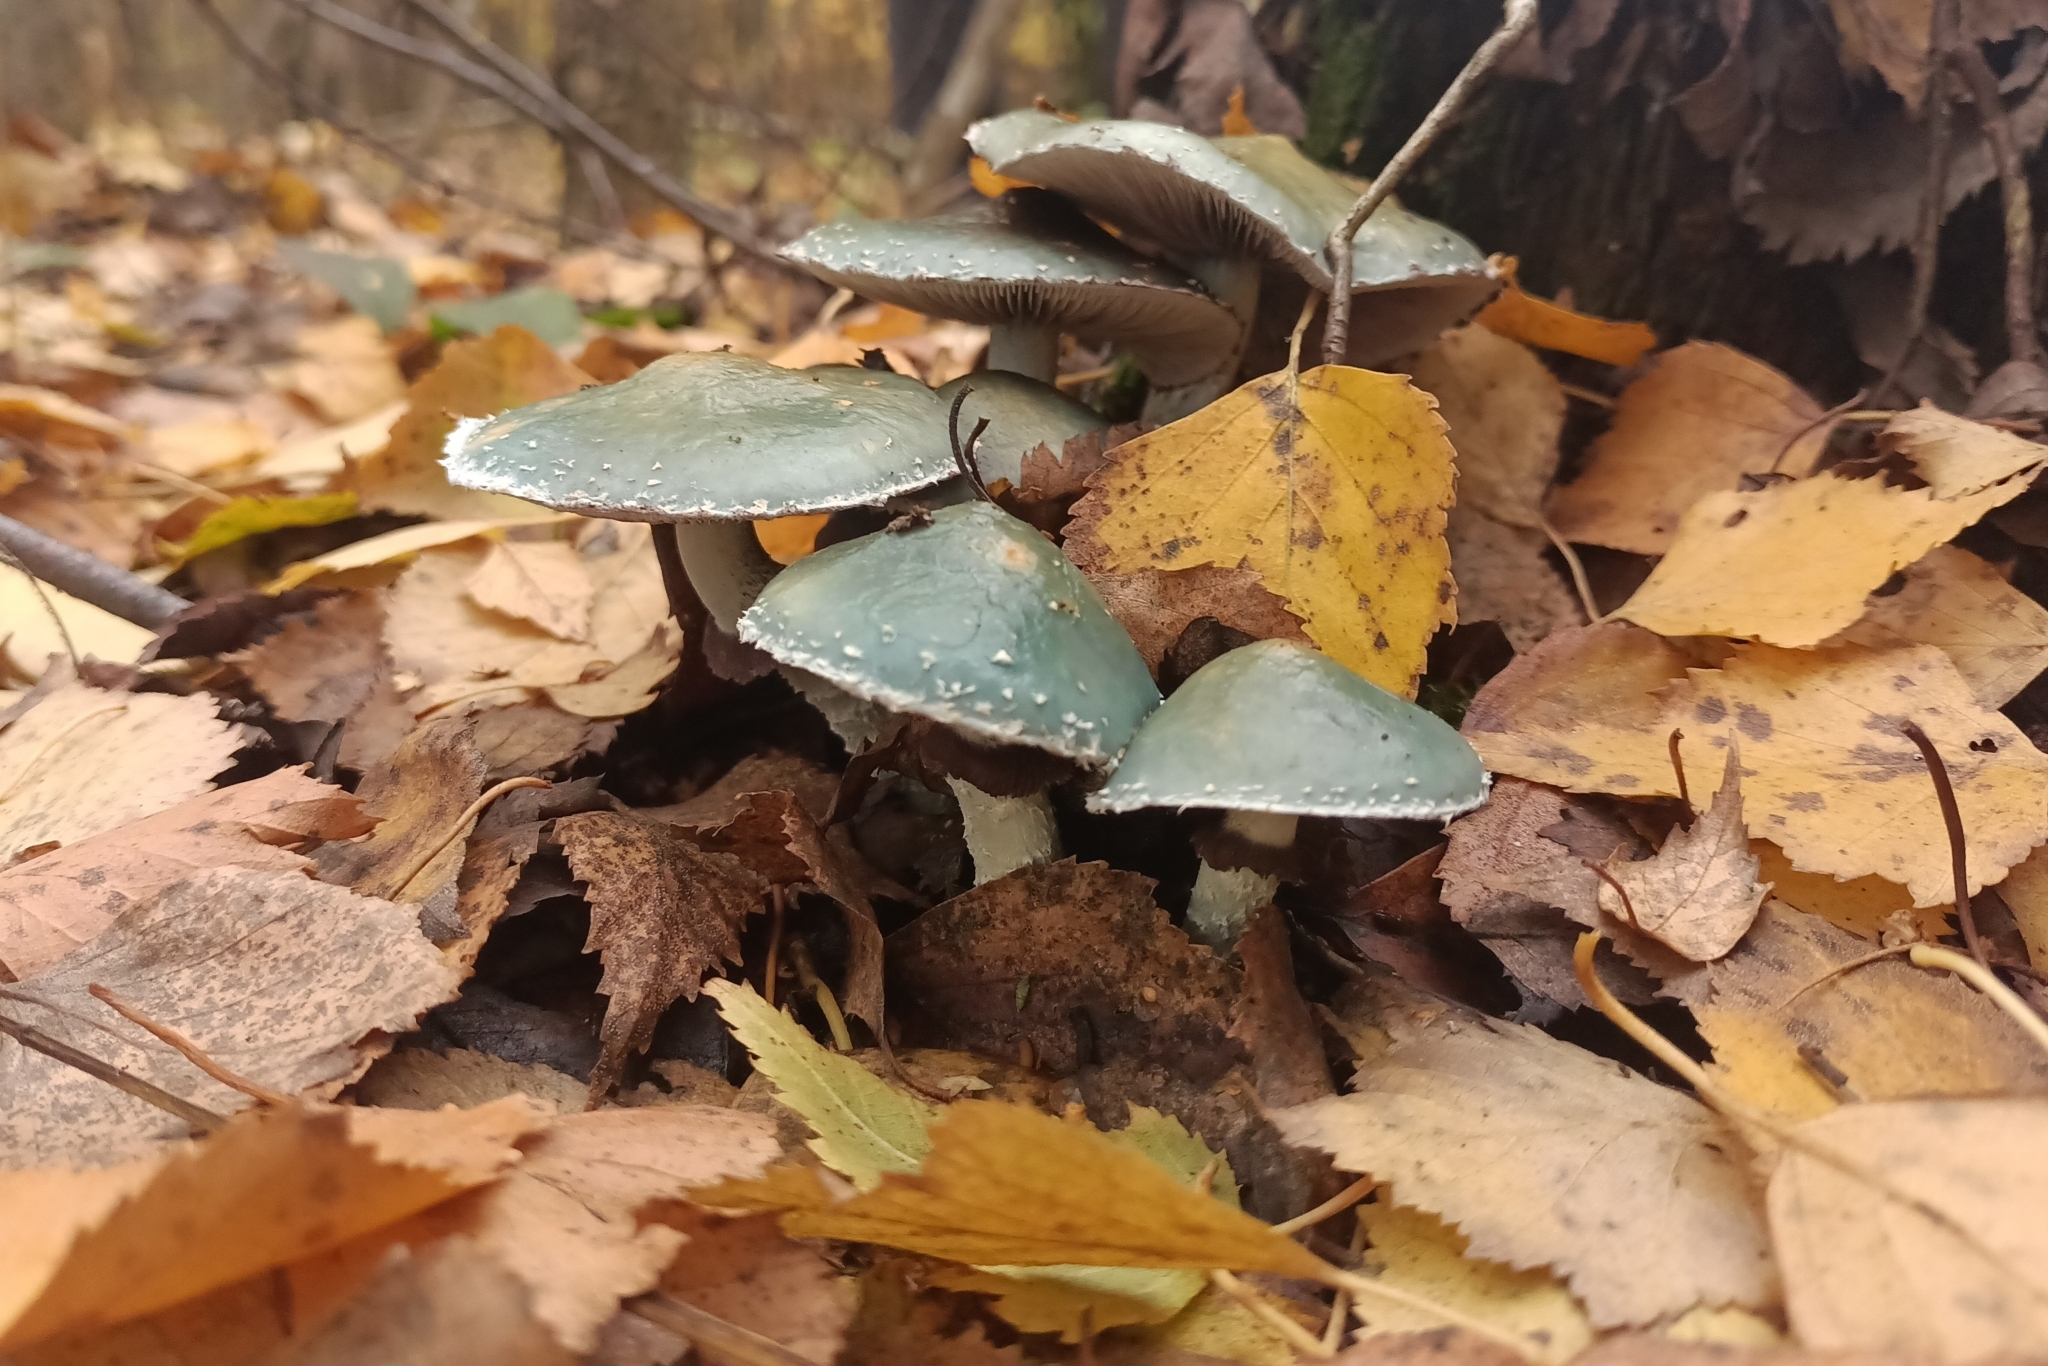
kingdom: Fungi
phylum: Basidiomycota
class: Agaricomycetes
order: Agaricales
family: Strophariaceae
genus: Stropharia
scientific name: Stropharia aeruginosa
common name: Verdigris roundhead
